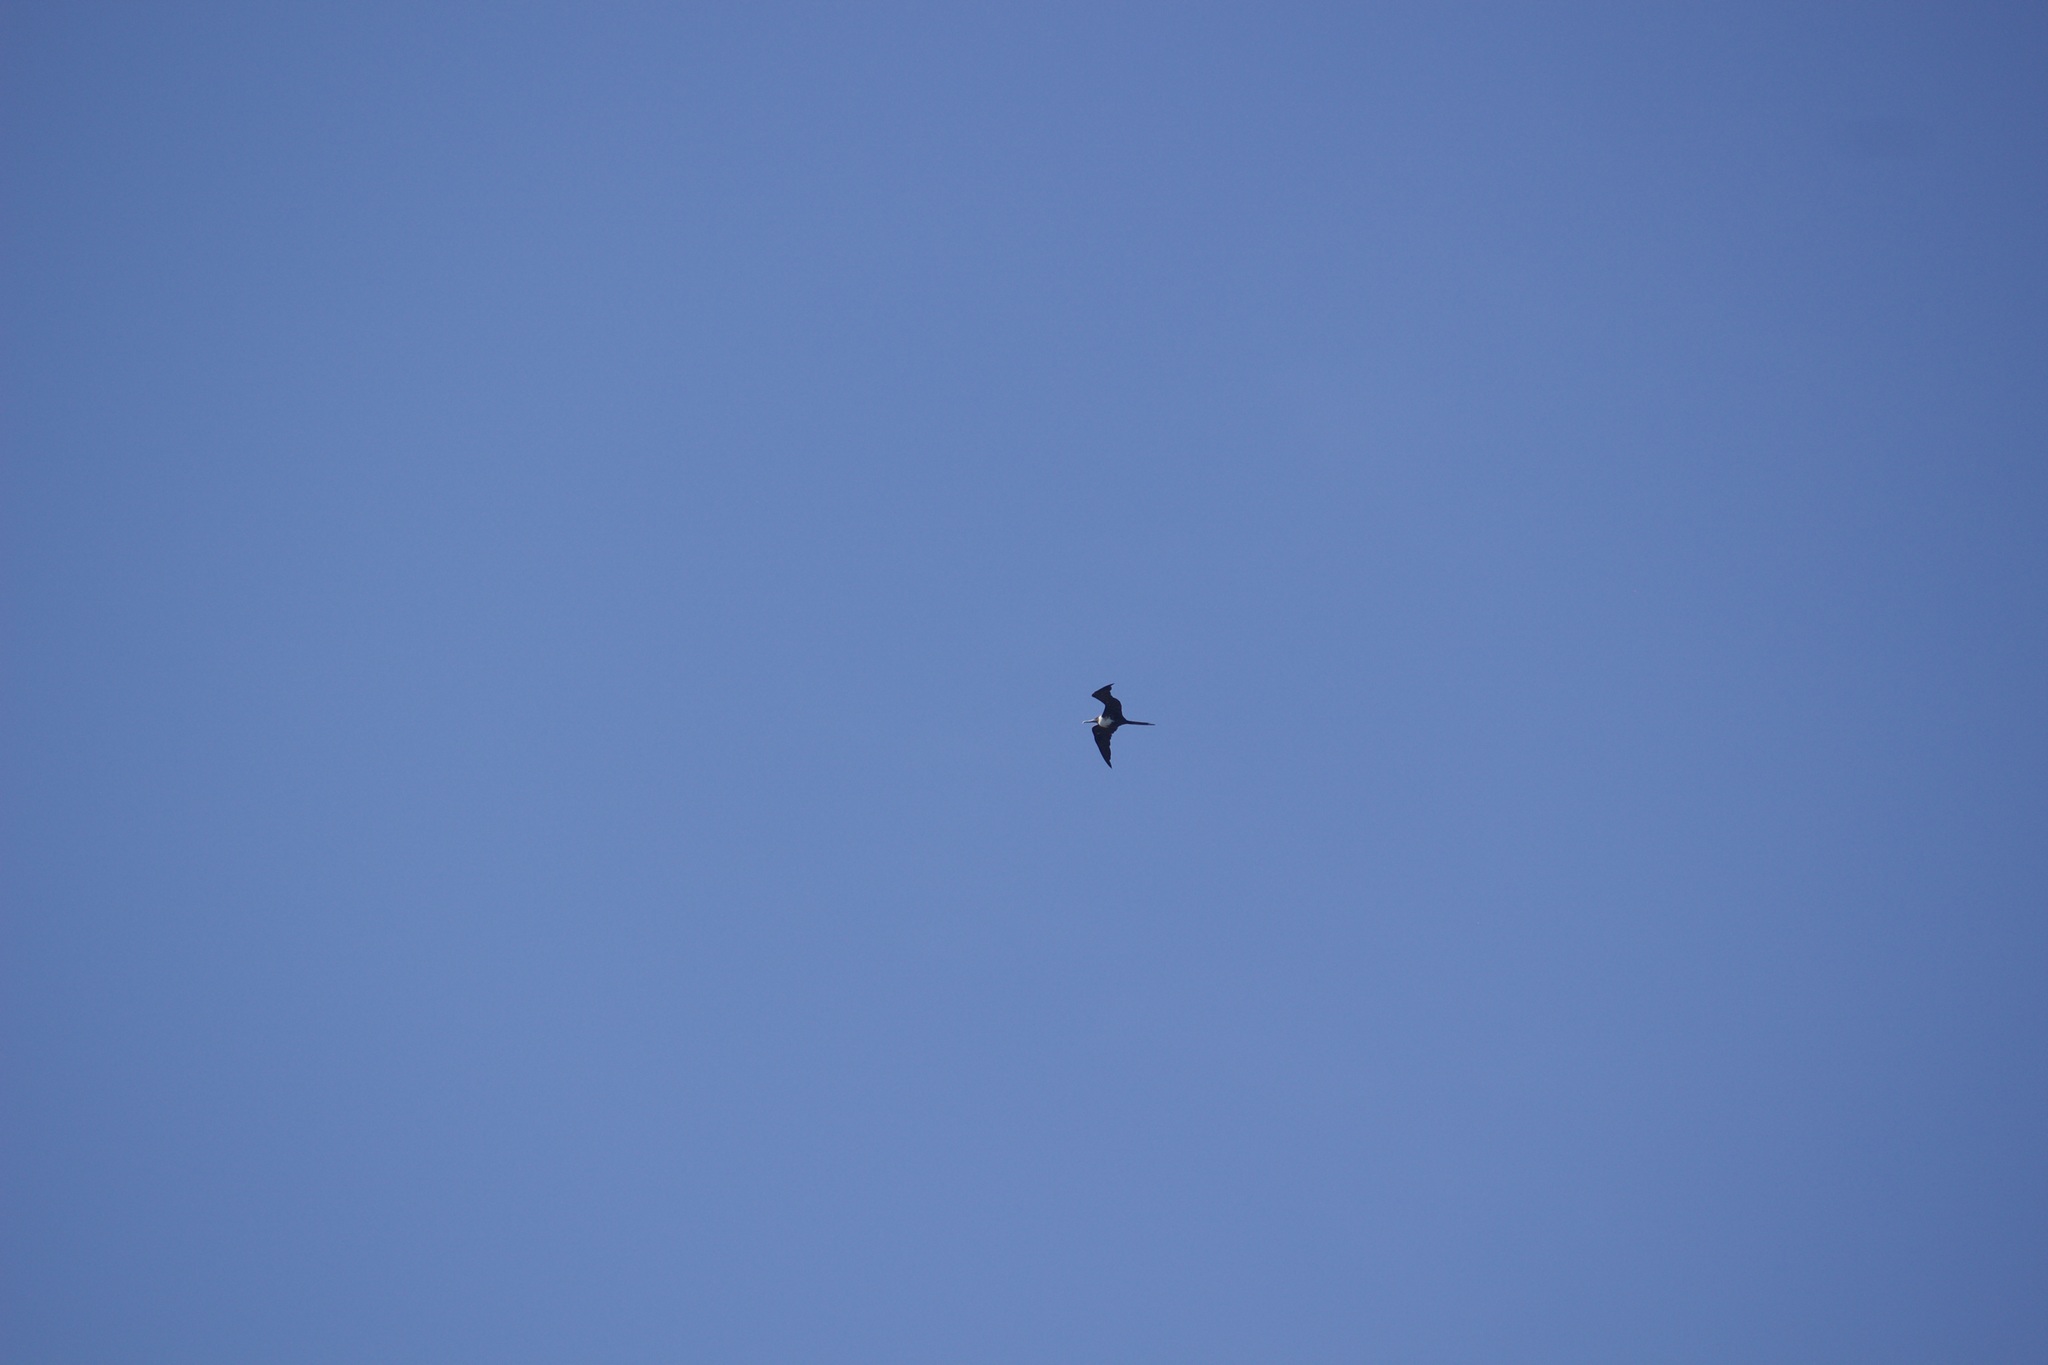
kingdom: Animalia
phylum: Chordata
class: Aves
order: Suliformes
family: Fregatidae
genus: Fregata
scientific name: Fregata magnificens
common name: Magnificent frigatebird
